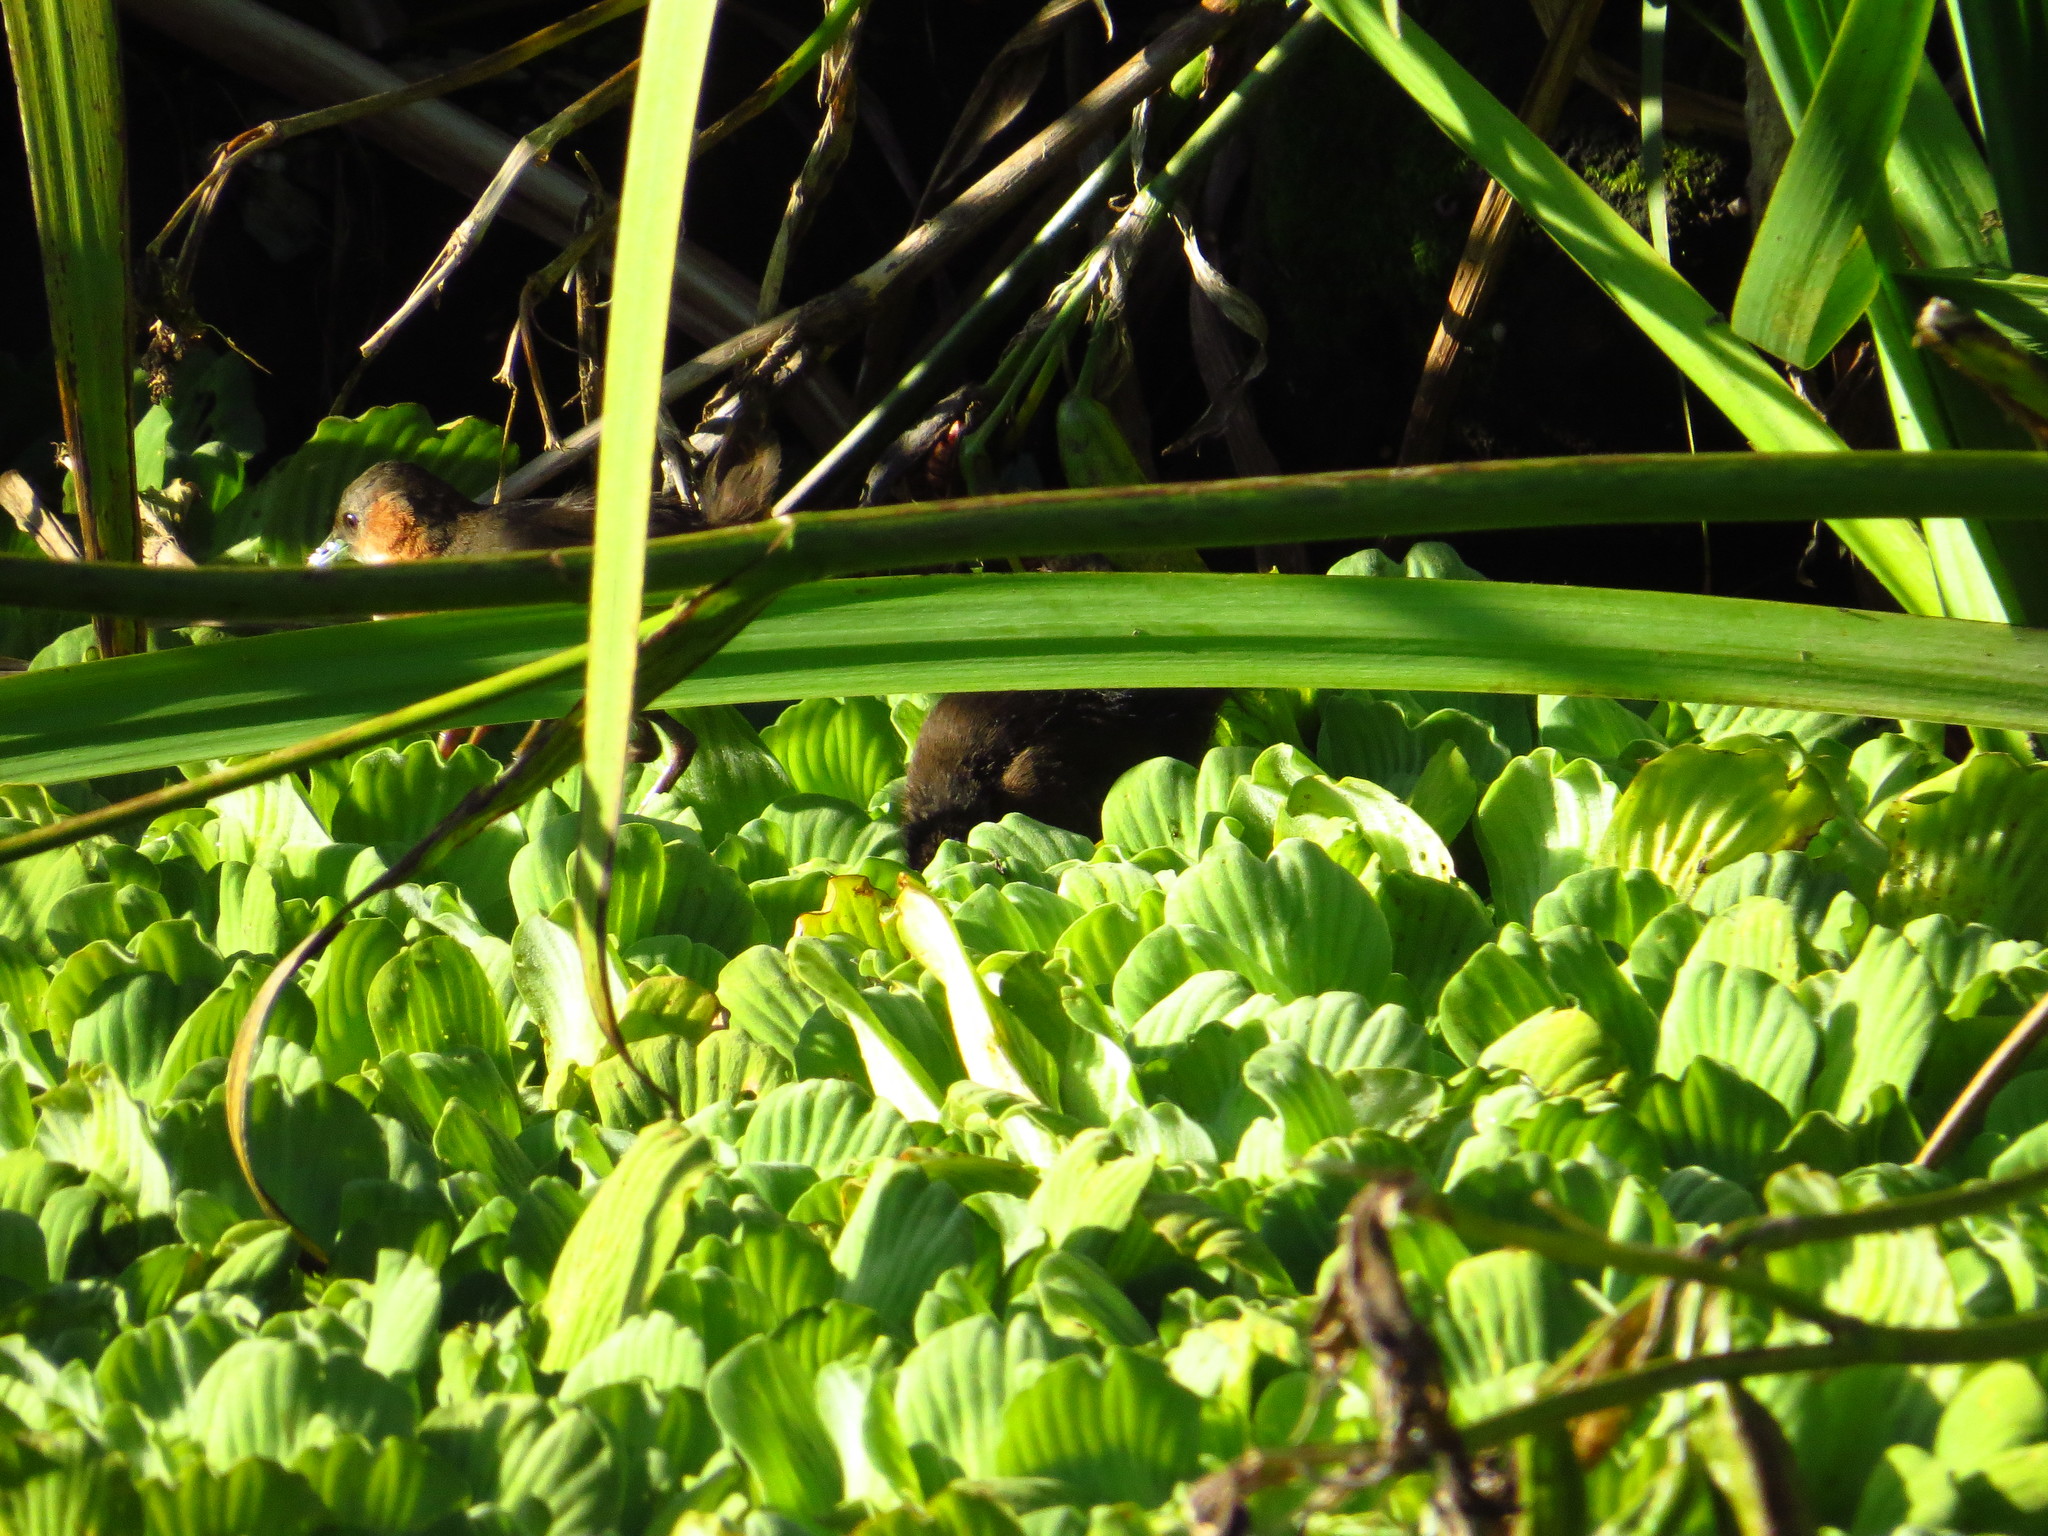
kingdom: Animalia
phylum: Chordata
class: Aves
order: Gruiformes
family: Rallidae
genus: Laterallus
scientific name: Laterallus melanophaius
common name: Rufous-sided crake
